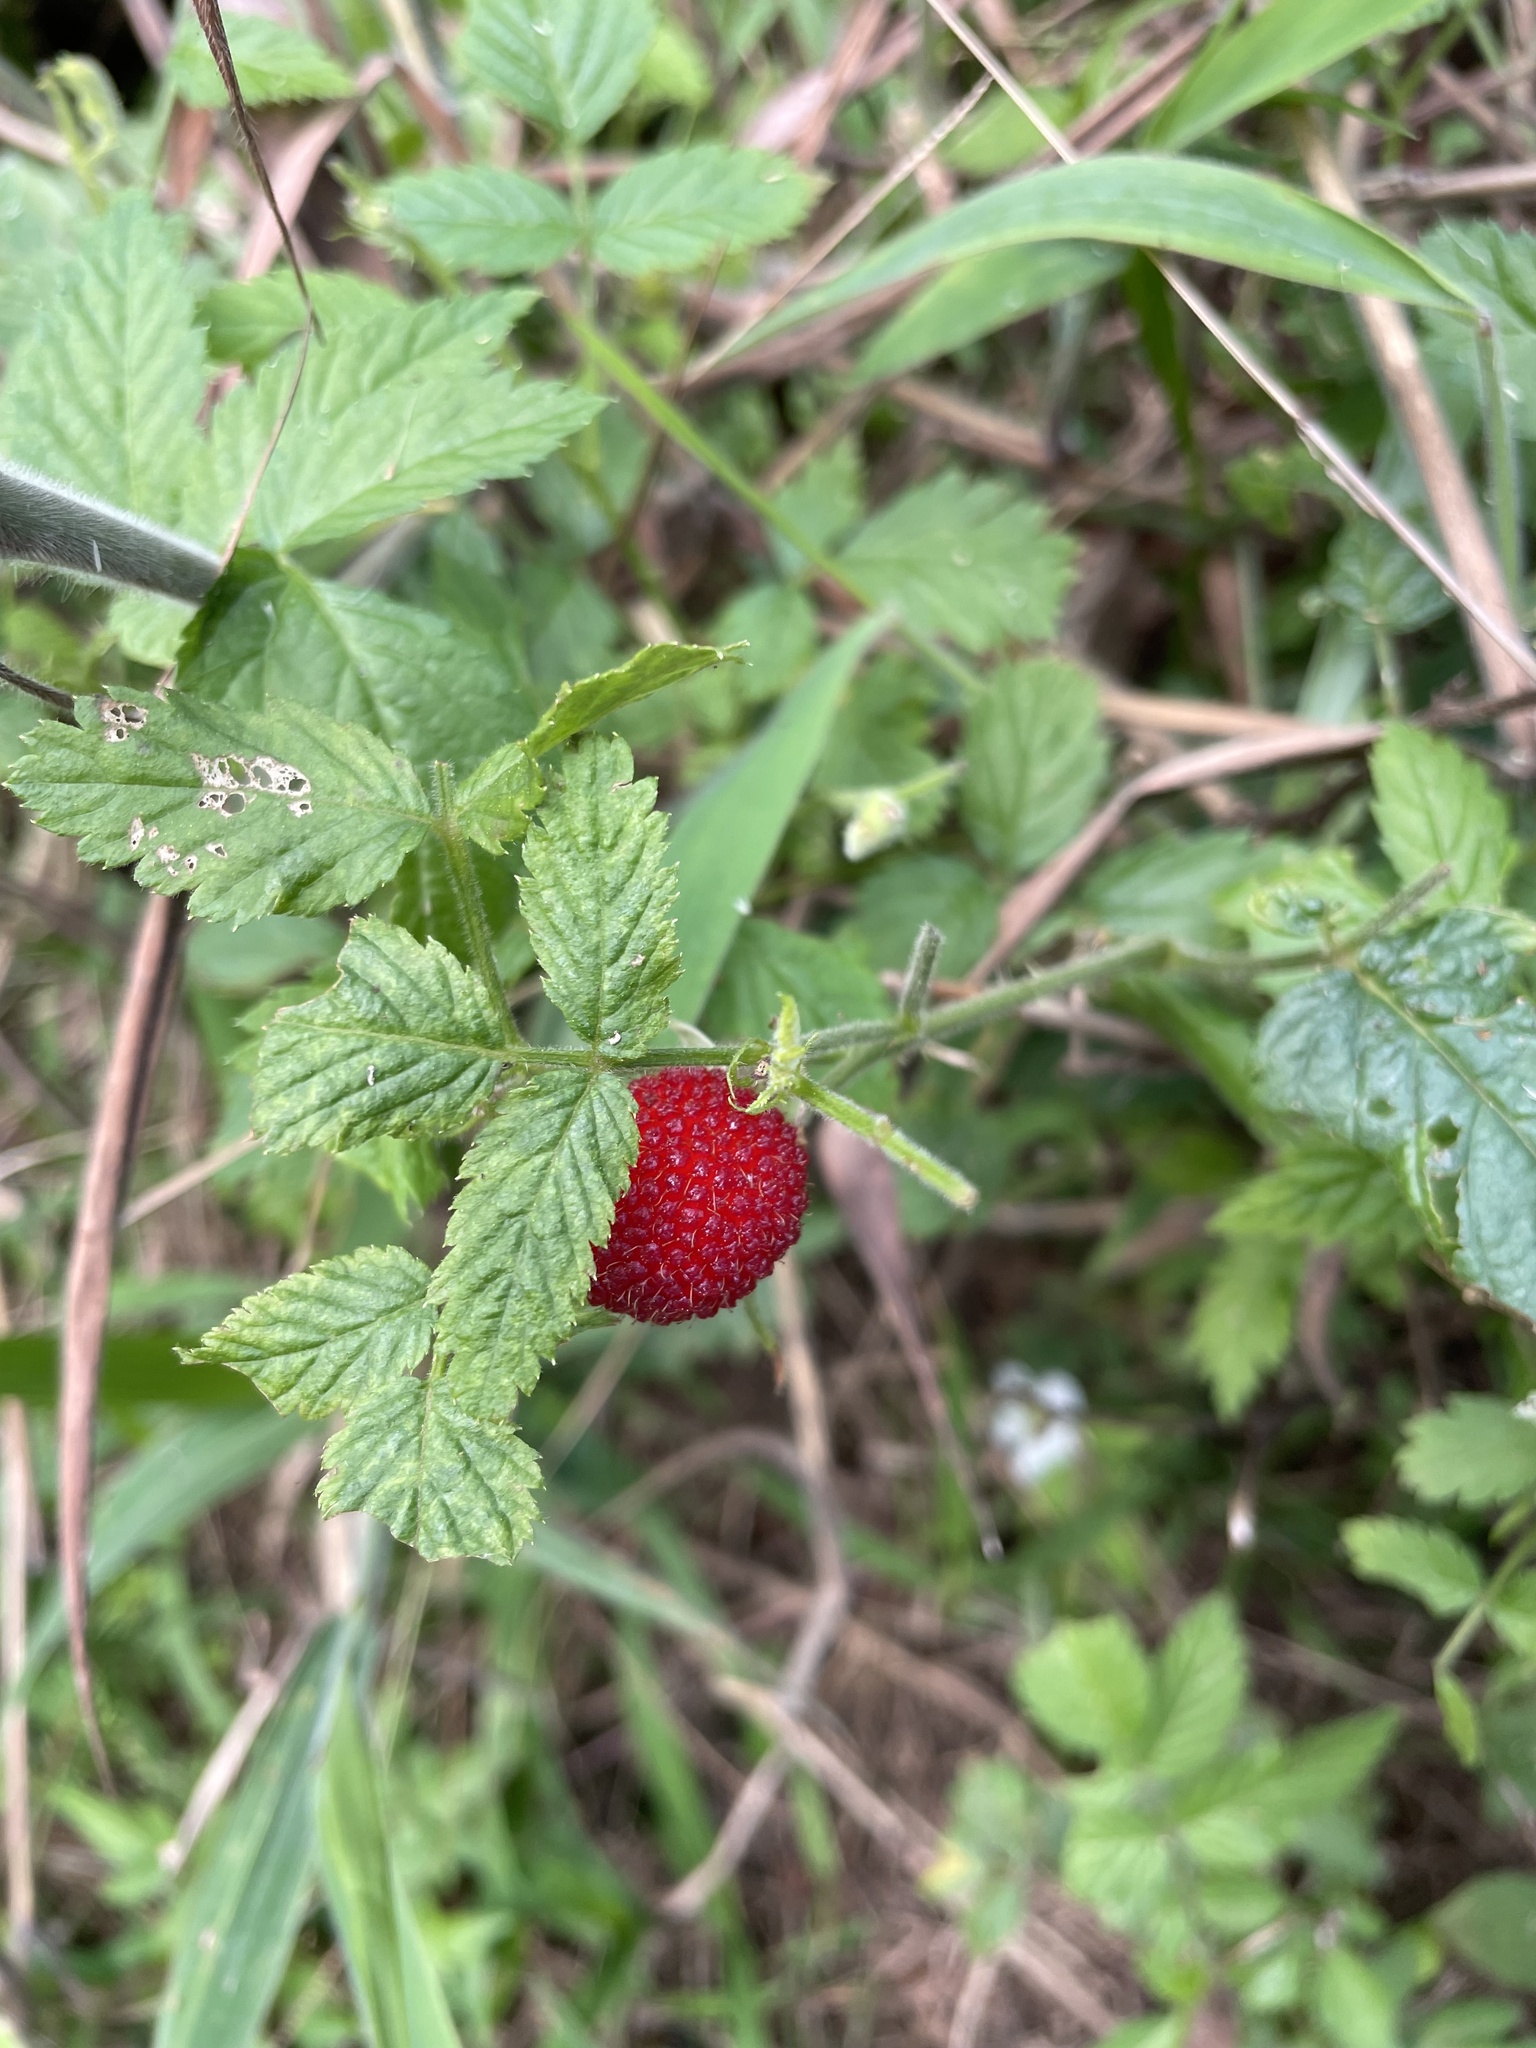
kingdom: Plantae
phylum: Tracheophyta
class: Magnoliopsida
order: Rosales
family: Rosaceae
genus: Rubus
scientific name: Rubus rosifolius
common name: Roseleaf raspberry
